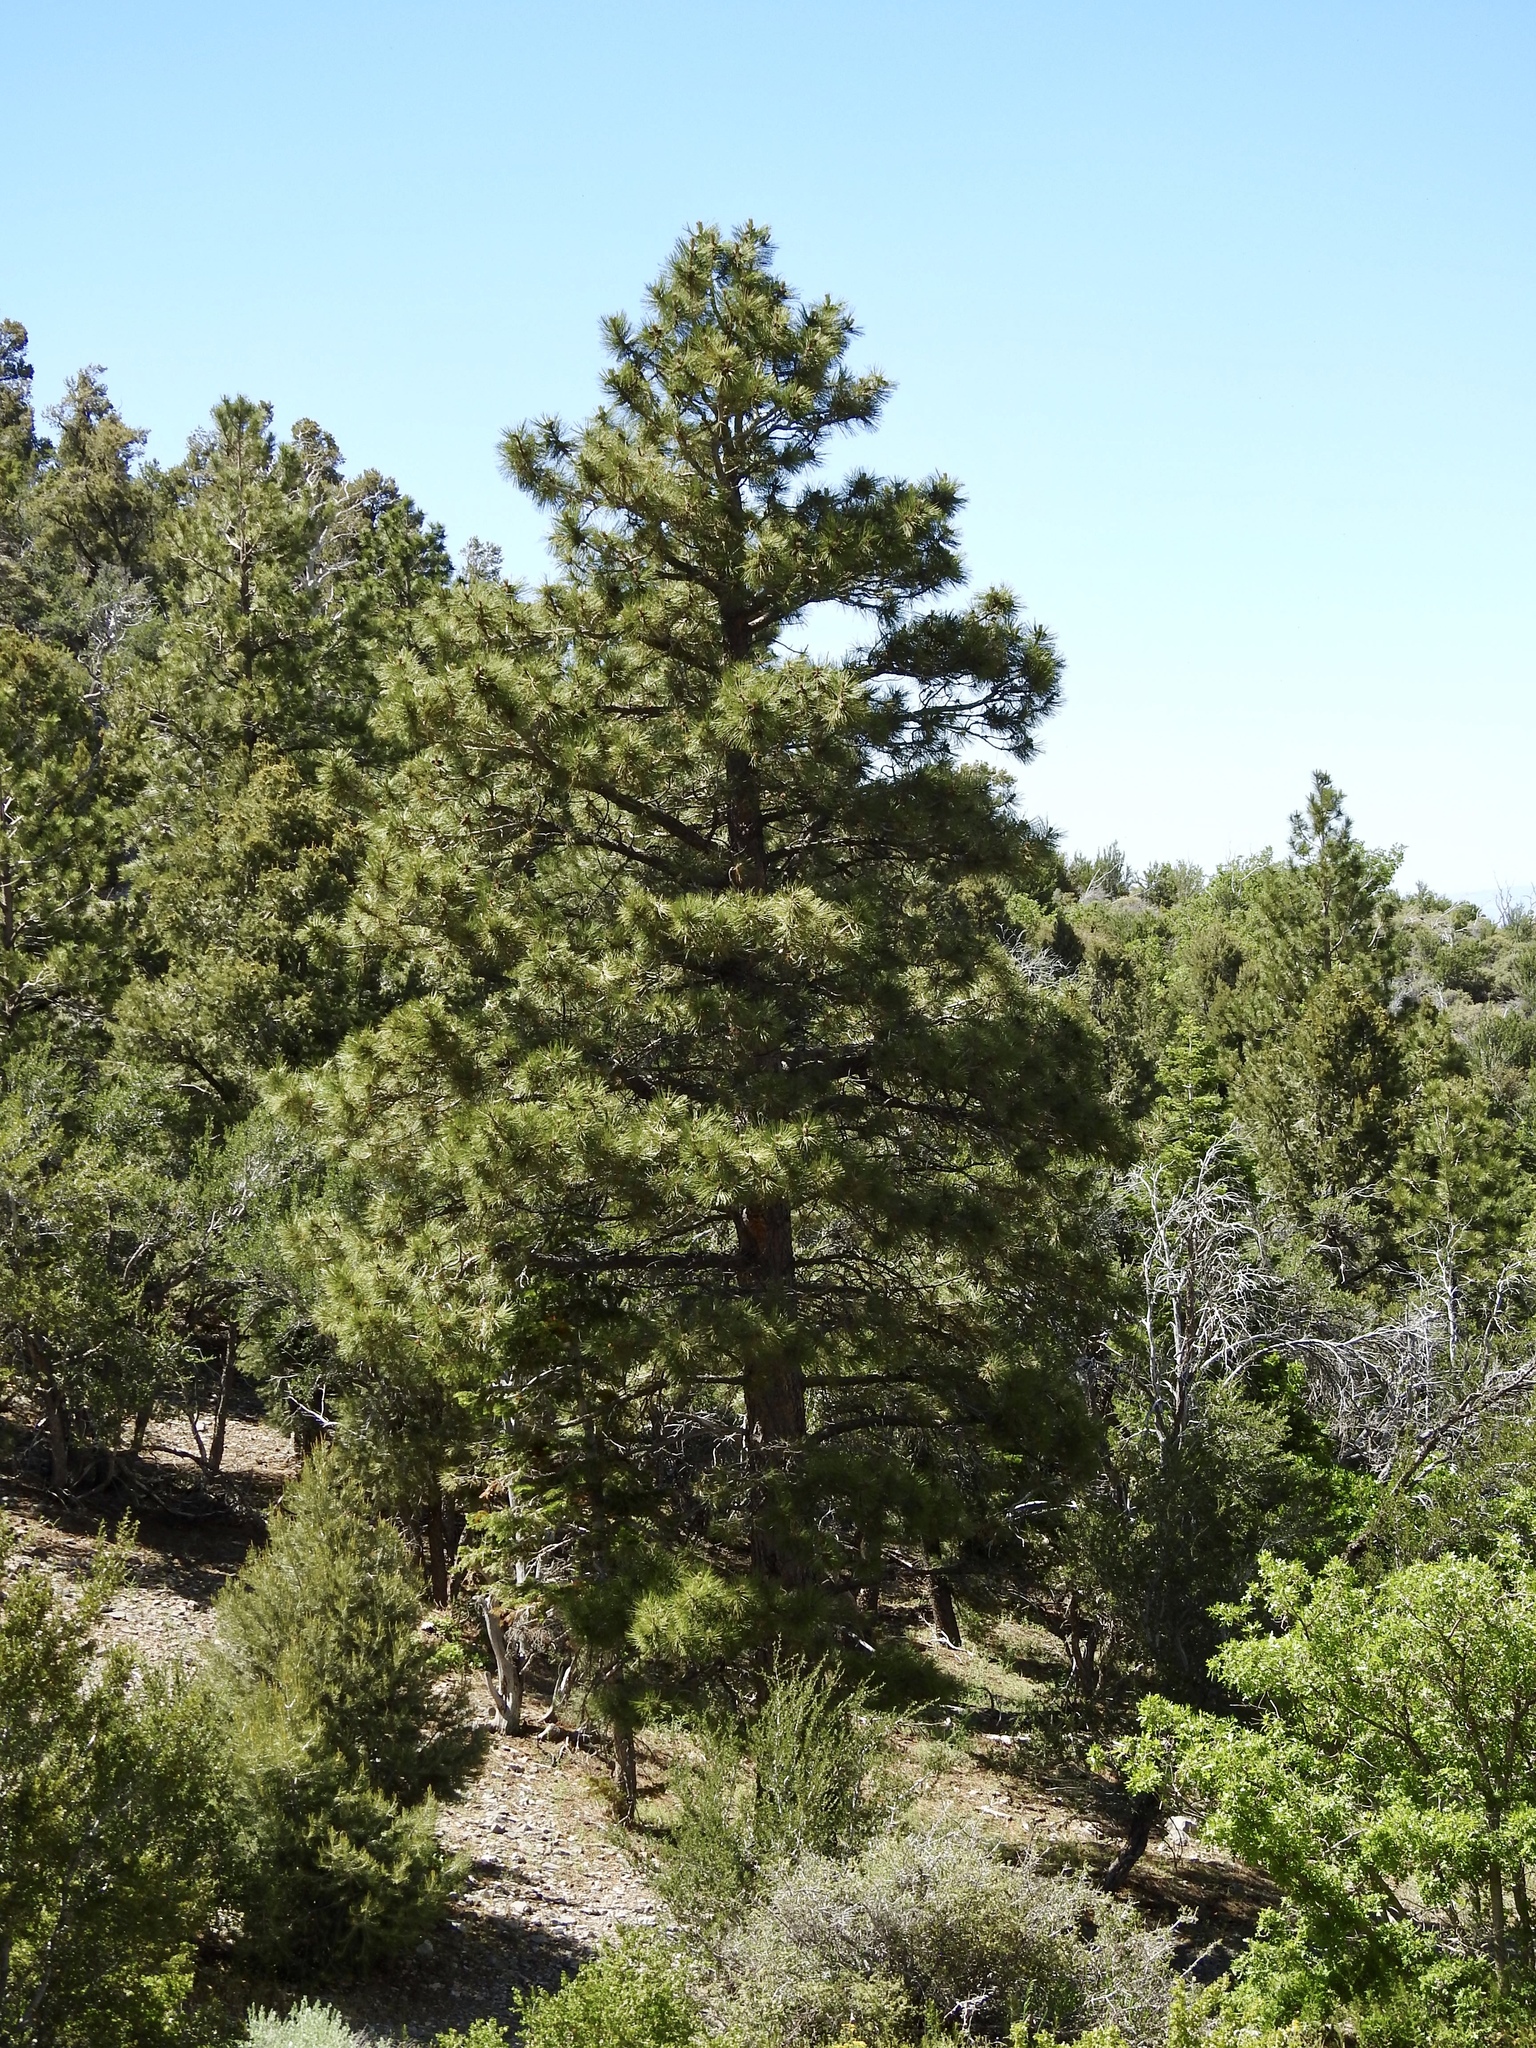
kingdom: Plantae
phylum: Tracheophyta
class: Pinopsida
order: Pinales
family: Pinaceae
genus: Pinus
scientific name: Pinus ponderosa
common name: Western yellow-pine
